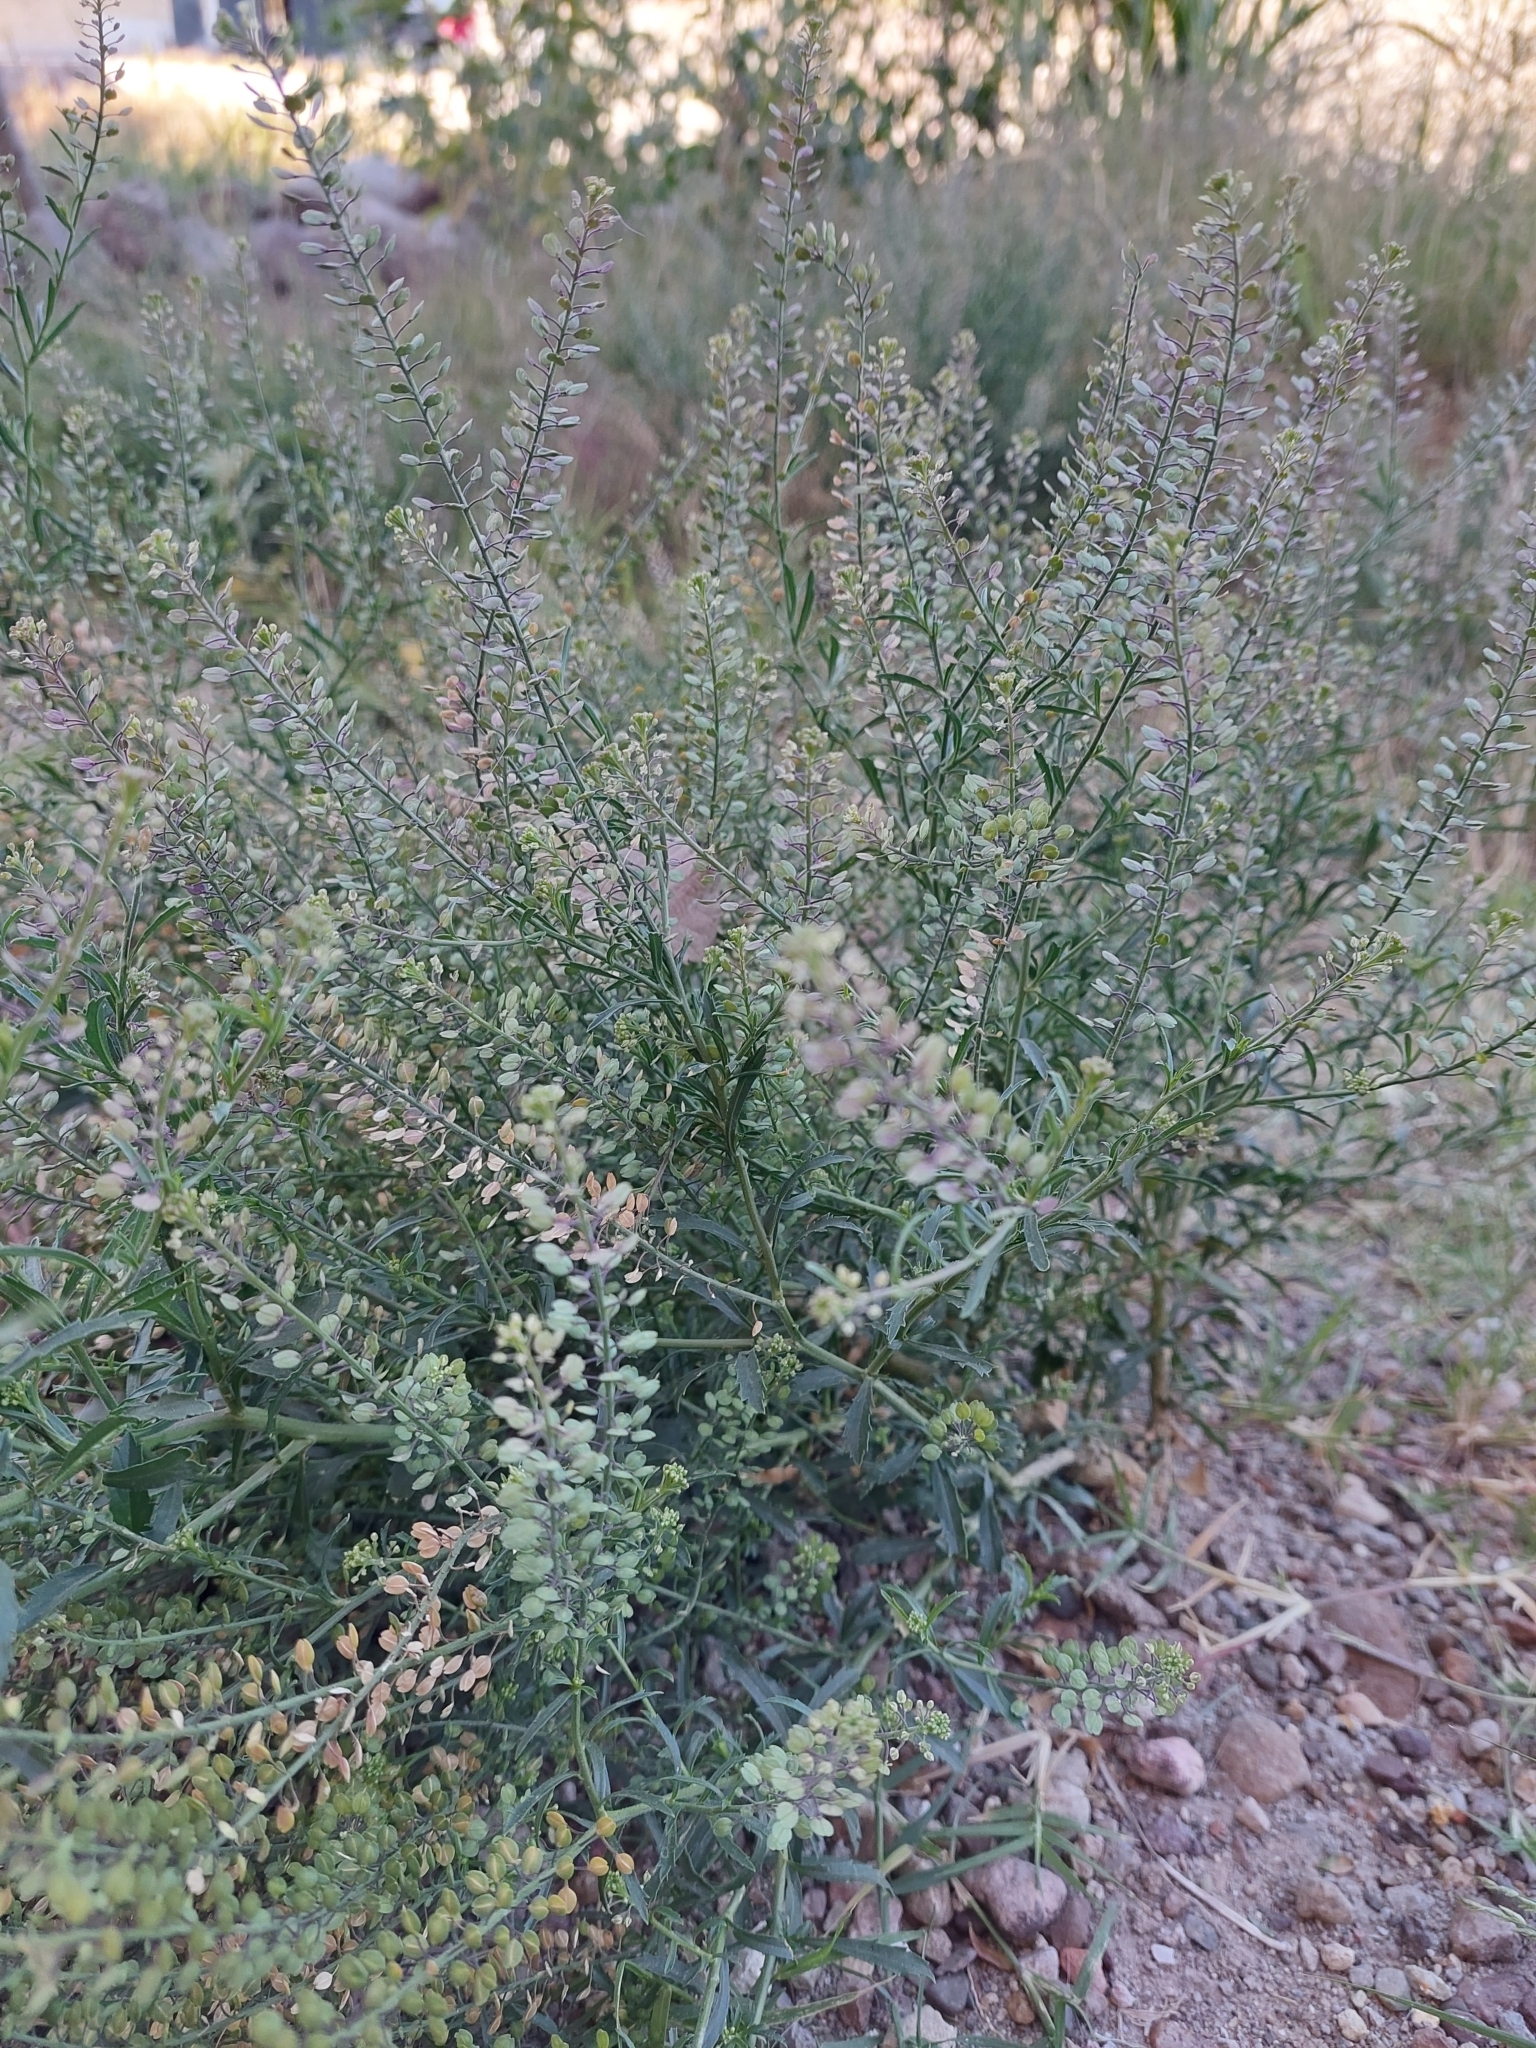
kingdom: Plantae
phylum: Tracheophyta
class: Magnoliopsida
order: Brassicales
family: Brassicaceae
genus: Lepidium
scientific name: Lepidium virginicum
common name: Least pepperwort
